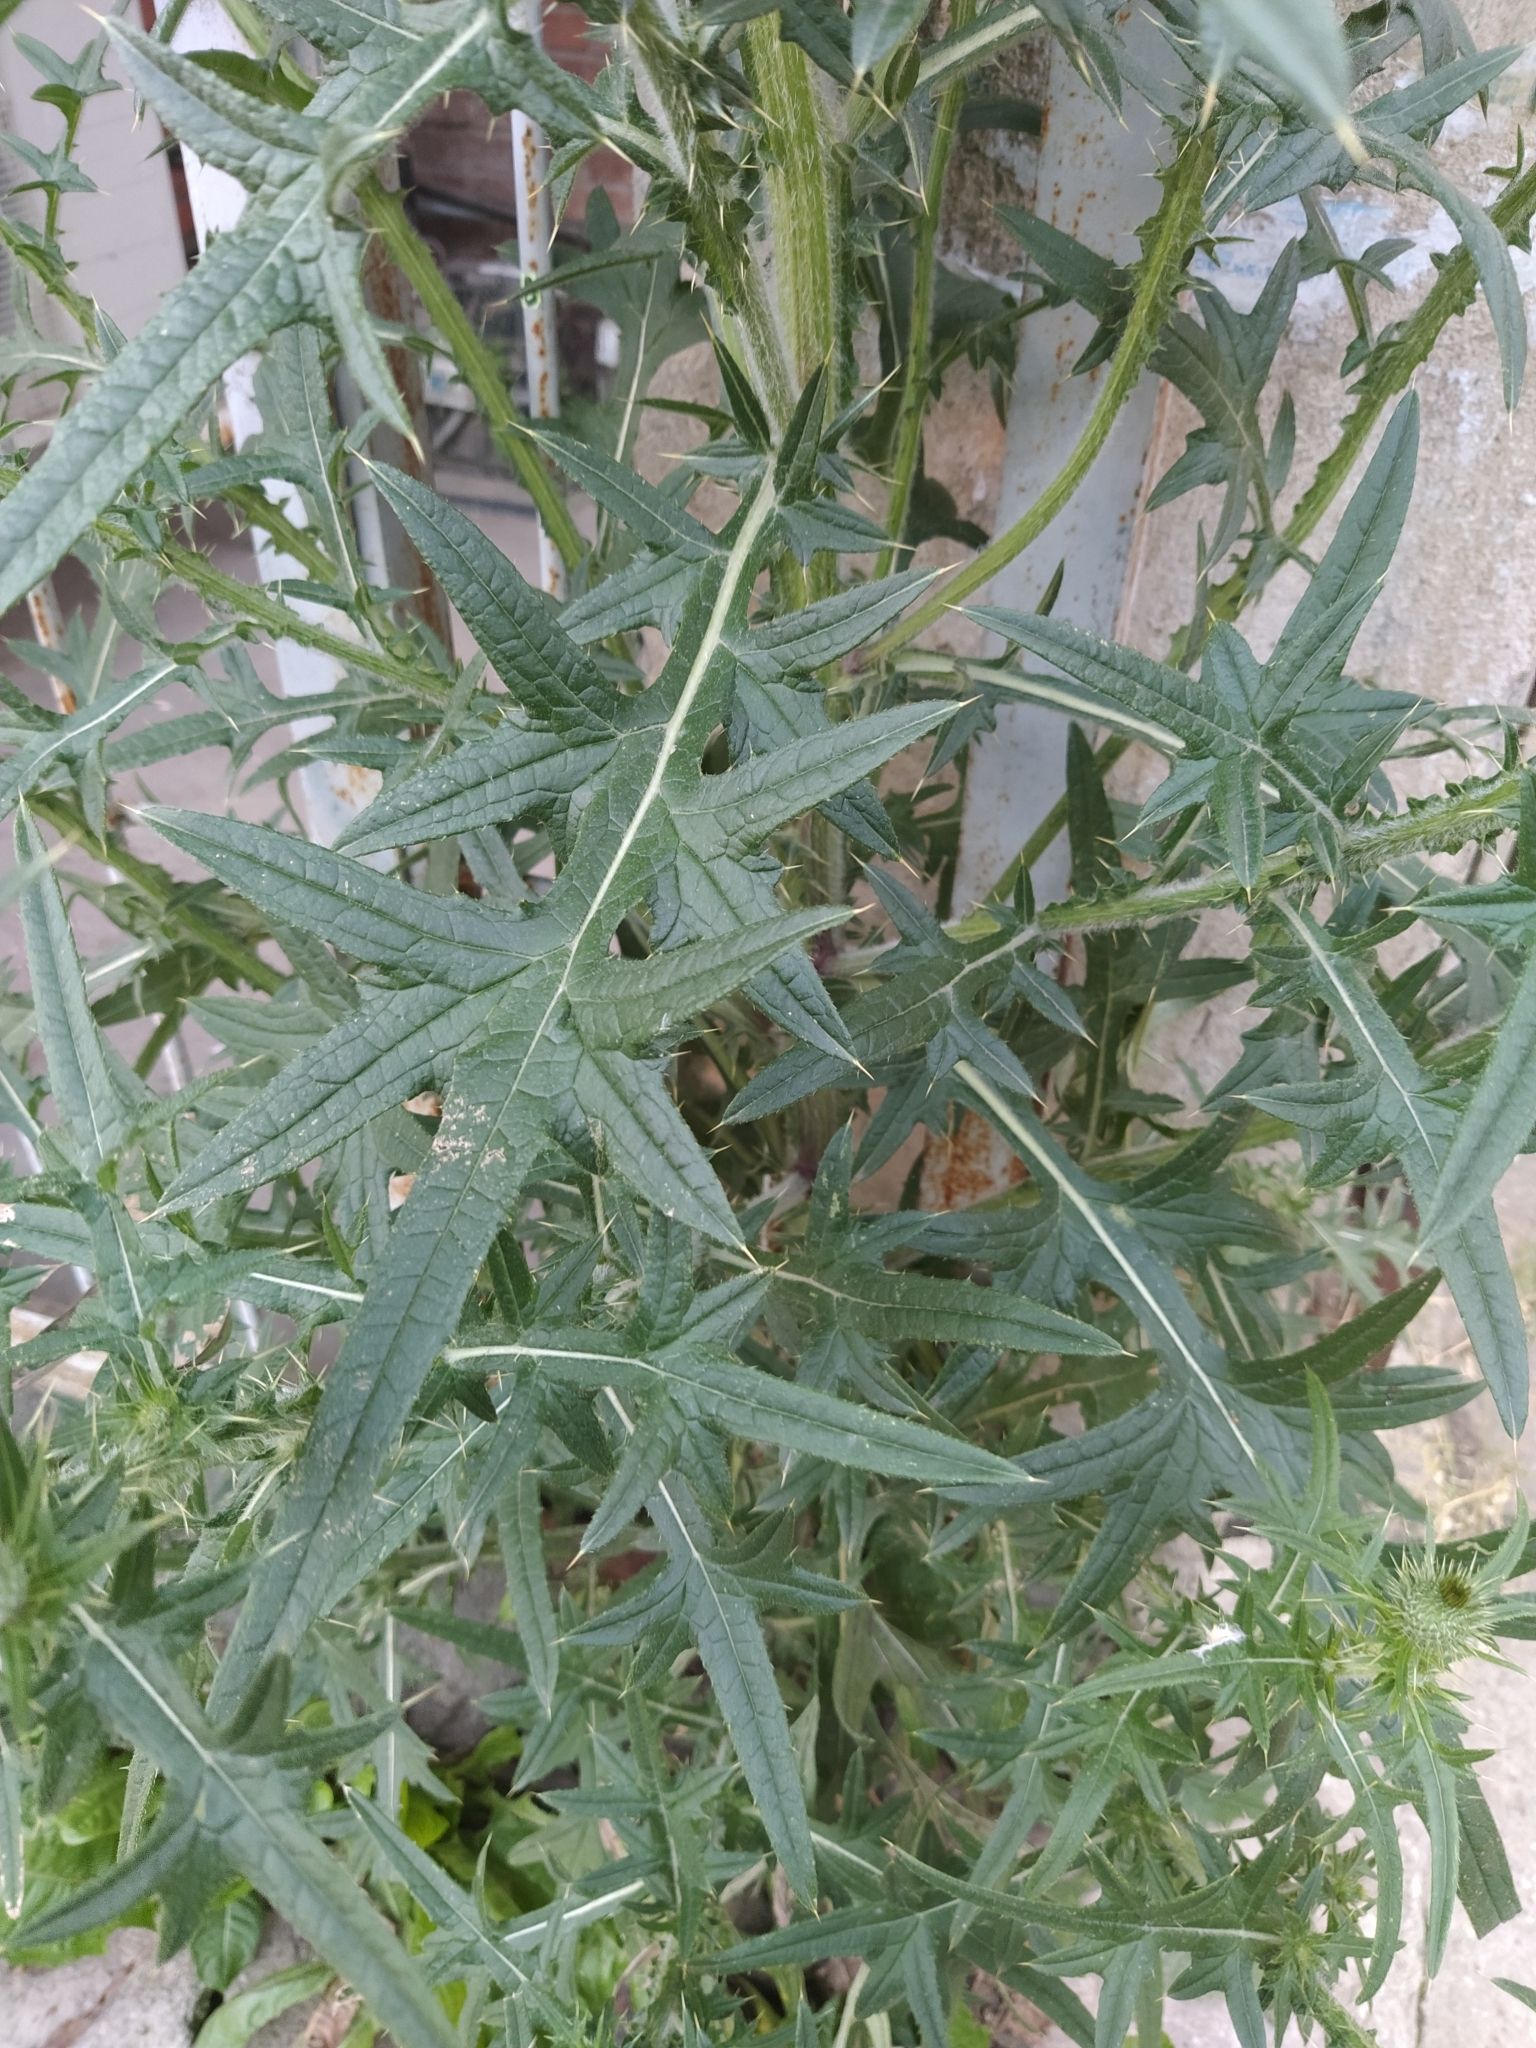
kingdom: Plantae
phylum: Tracheophyta
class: Magnoliopsida
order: Asterales
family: Asteraceae
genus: Cirsium
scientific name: Cirsium vulgare
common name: Bull thistle
